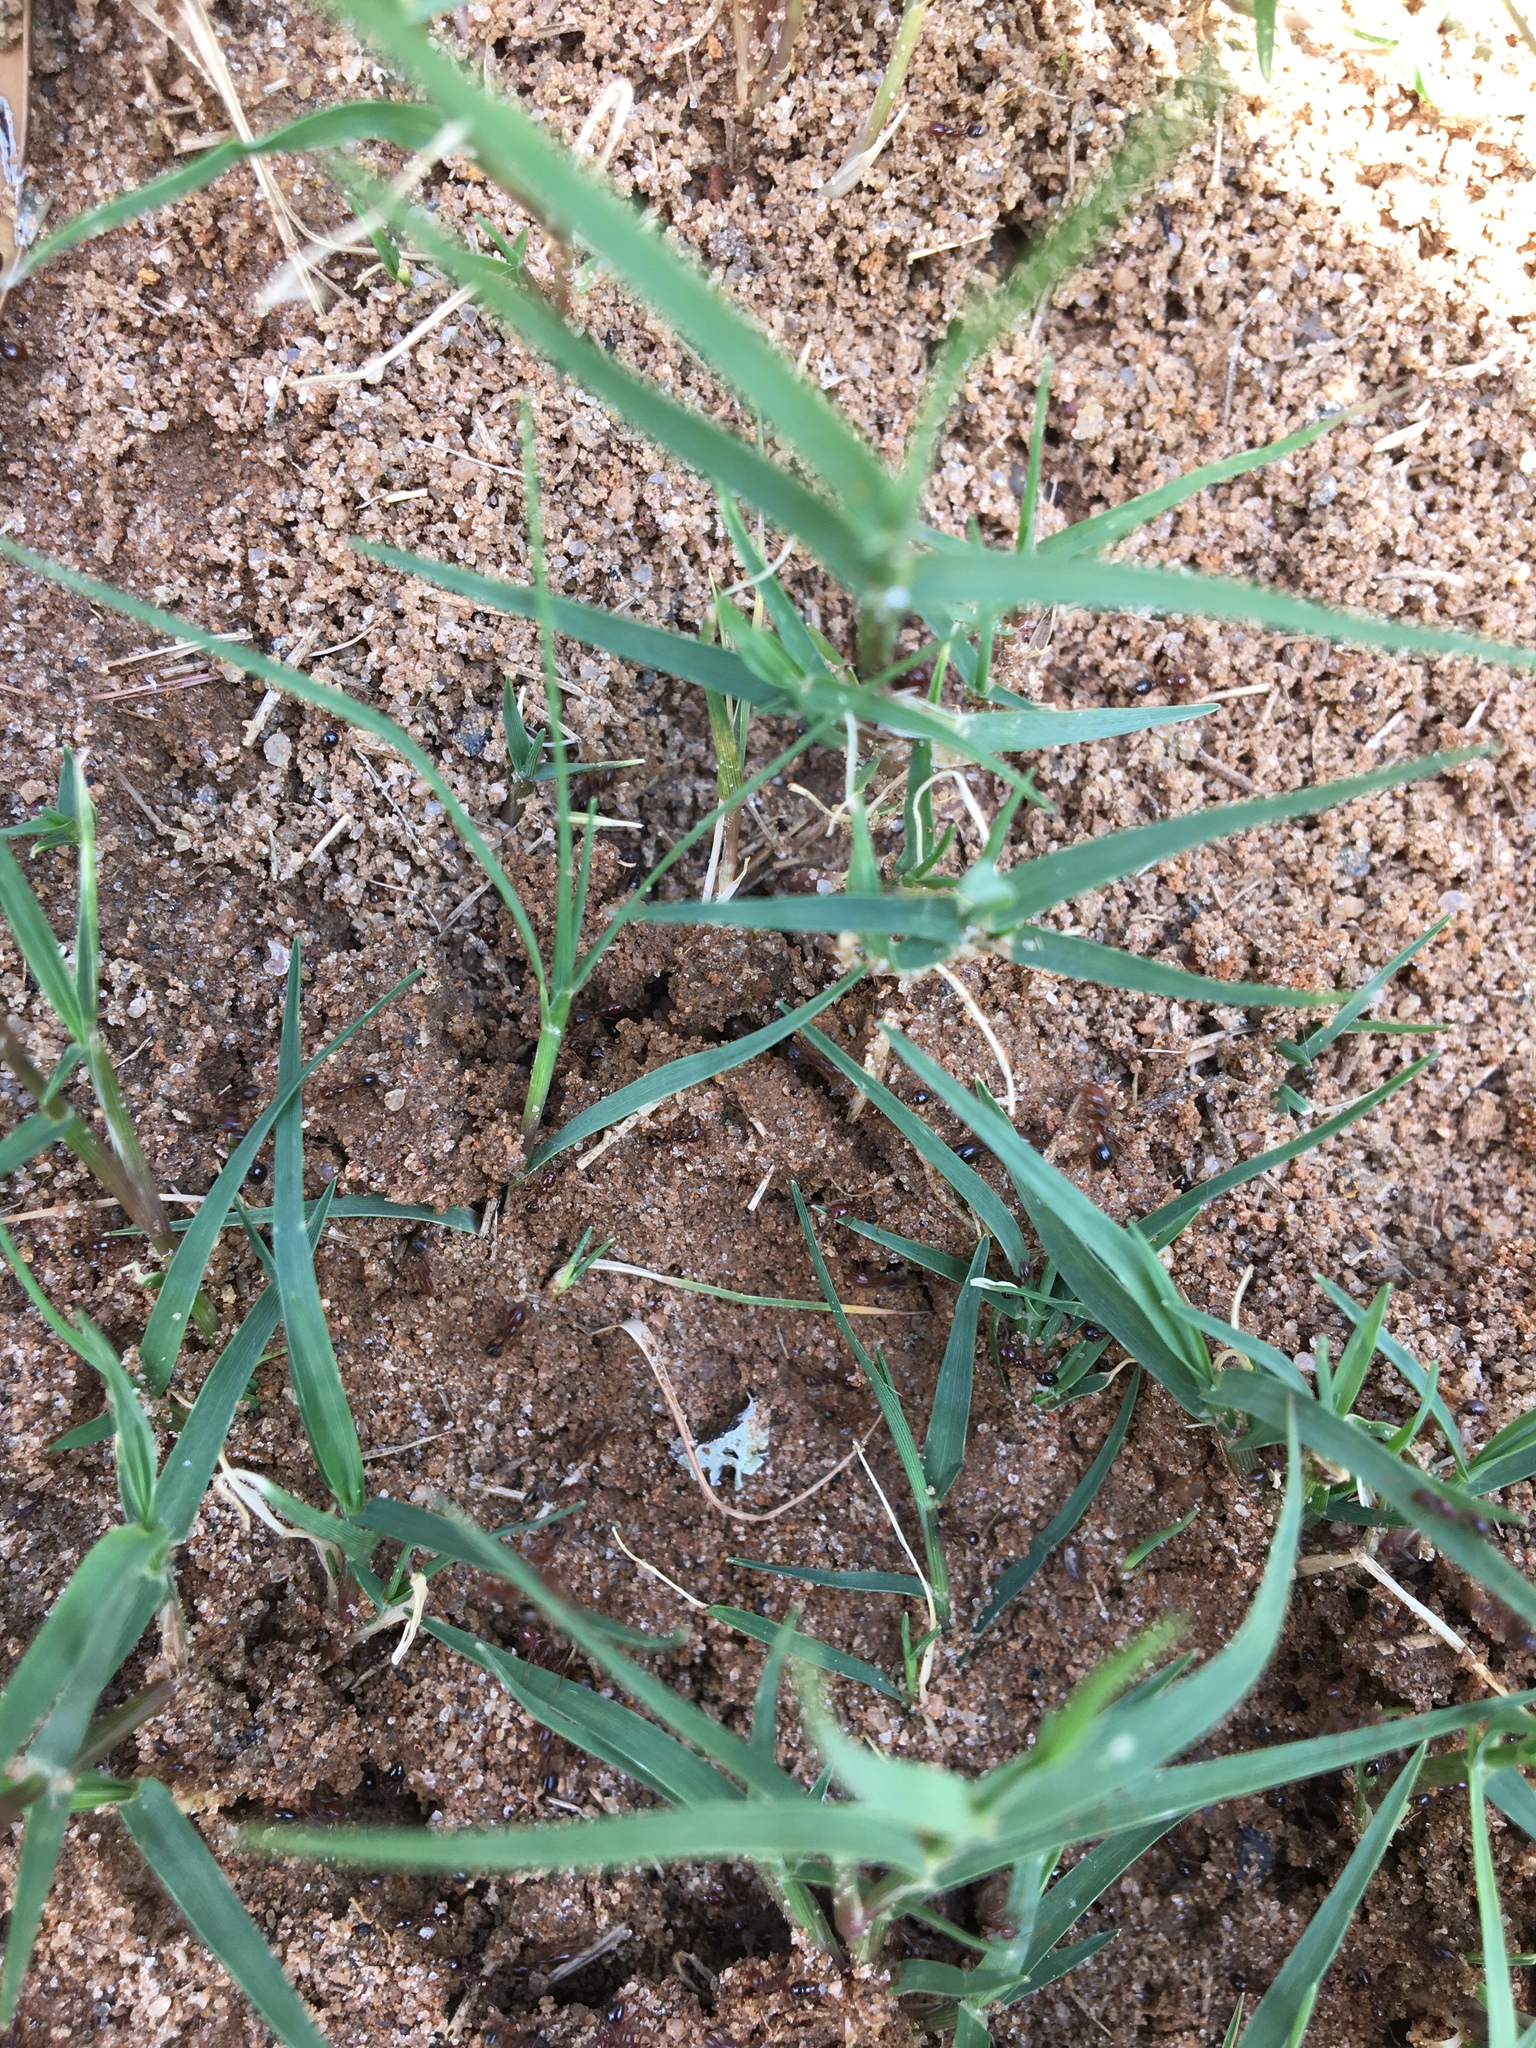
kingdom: Animalia
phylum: Arthropoda
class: Insecta
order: Hymenoptera
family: Formicidae
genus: Solenopsis
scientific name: Solenopsis invicta
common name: Red imported fire ant
